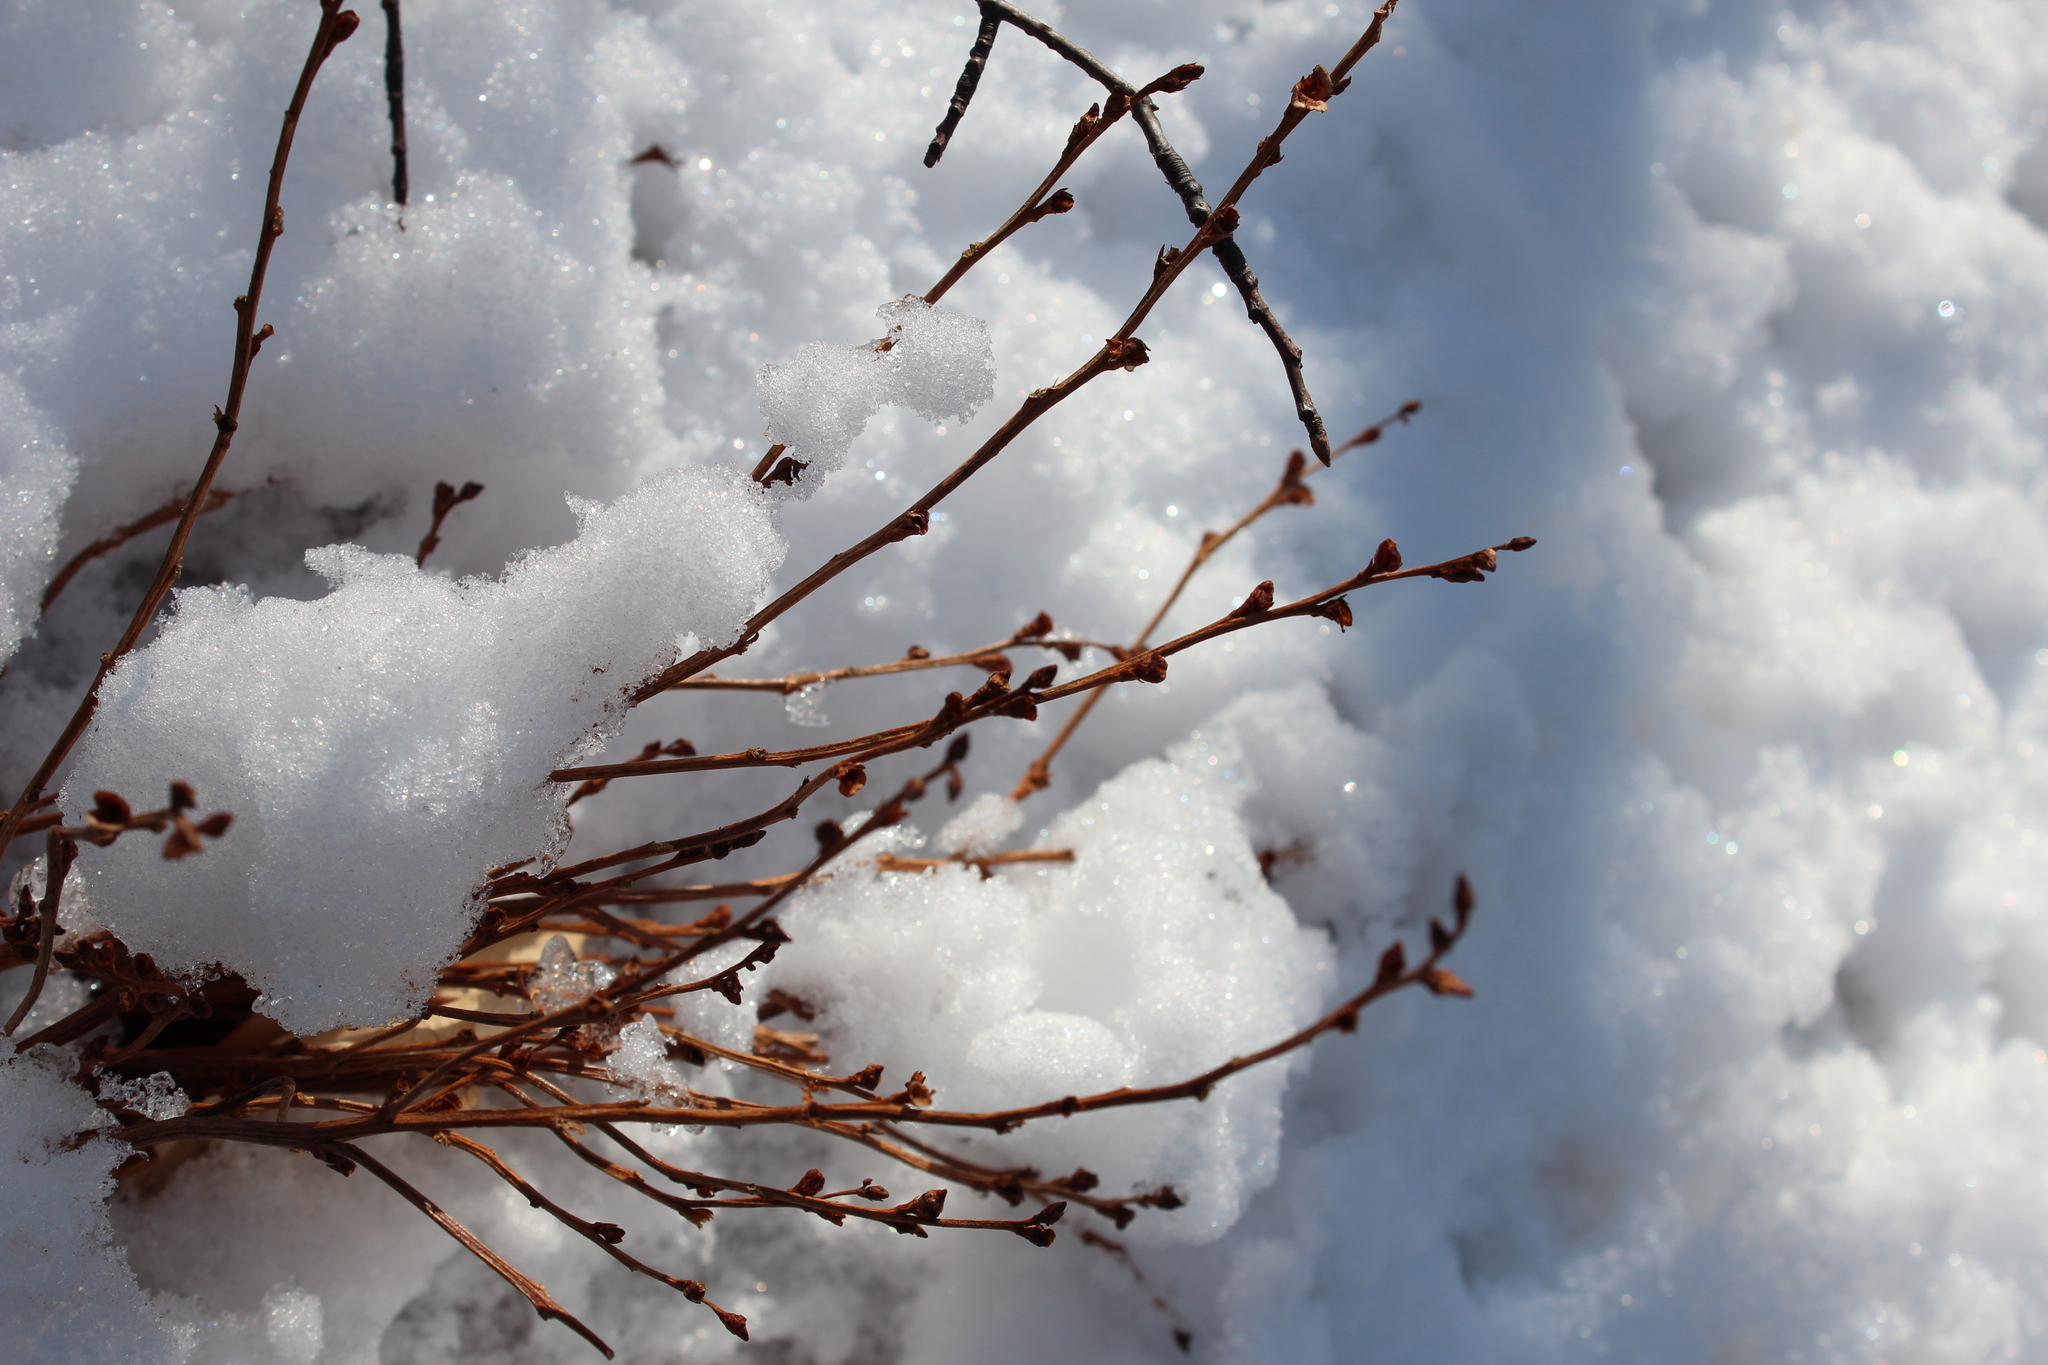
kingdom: Plantae
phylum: Tracheophyta
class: Magnoliopsida
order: Lamiales
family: Orobanchaceae
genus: Epifagus
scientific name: Epifagus virginiana
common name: Beechdrops
